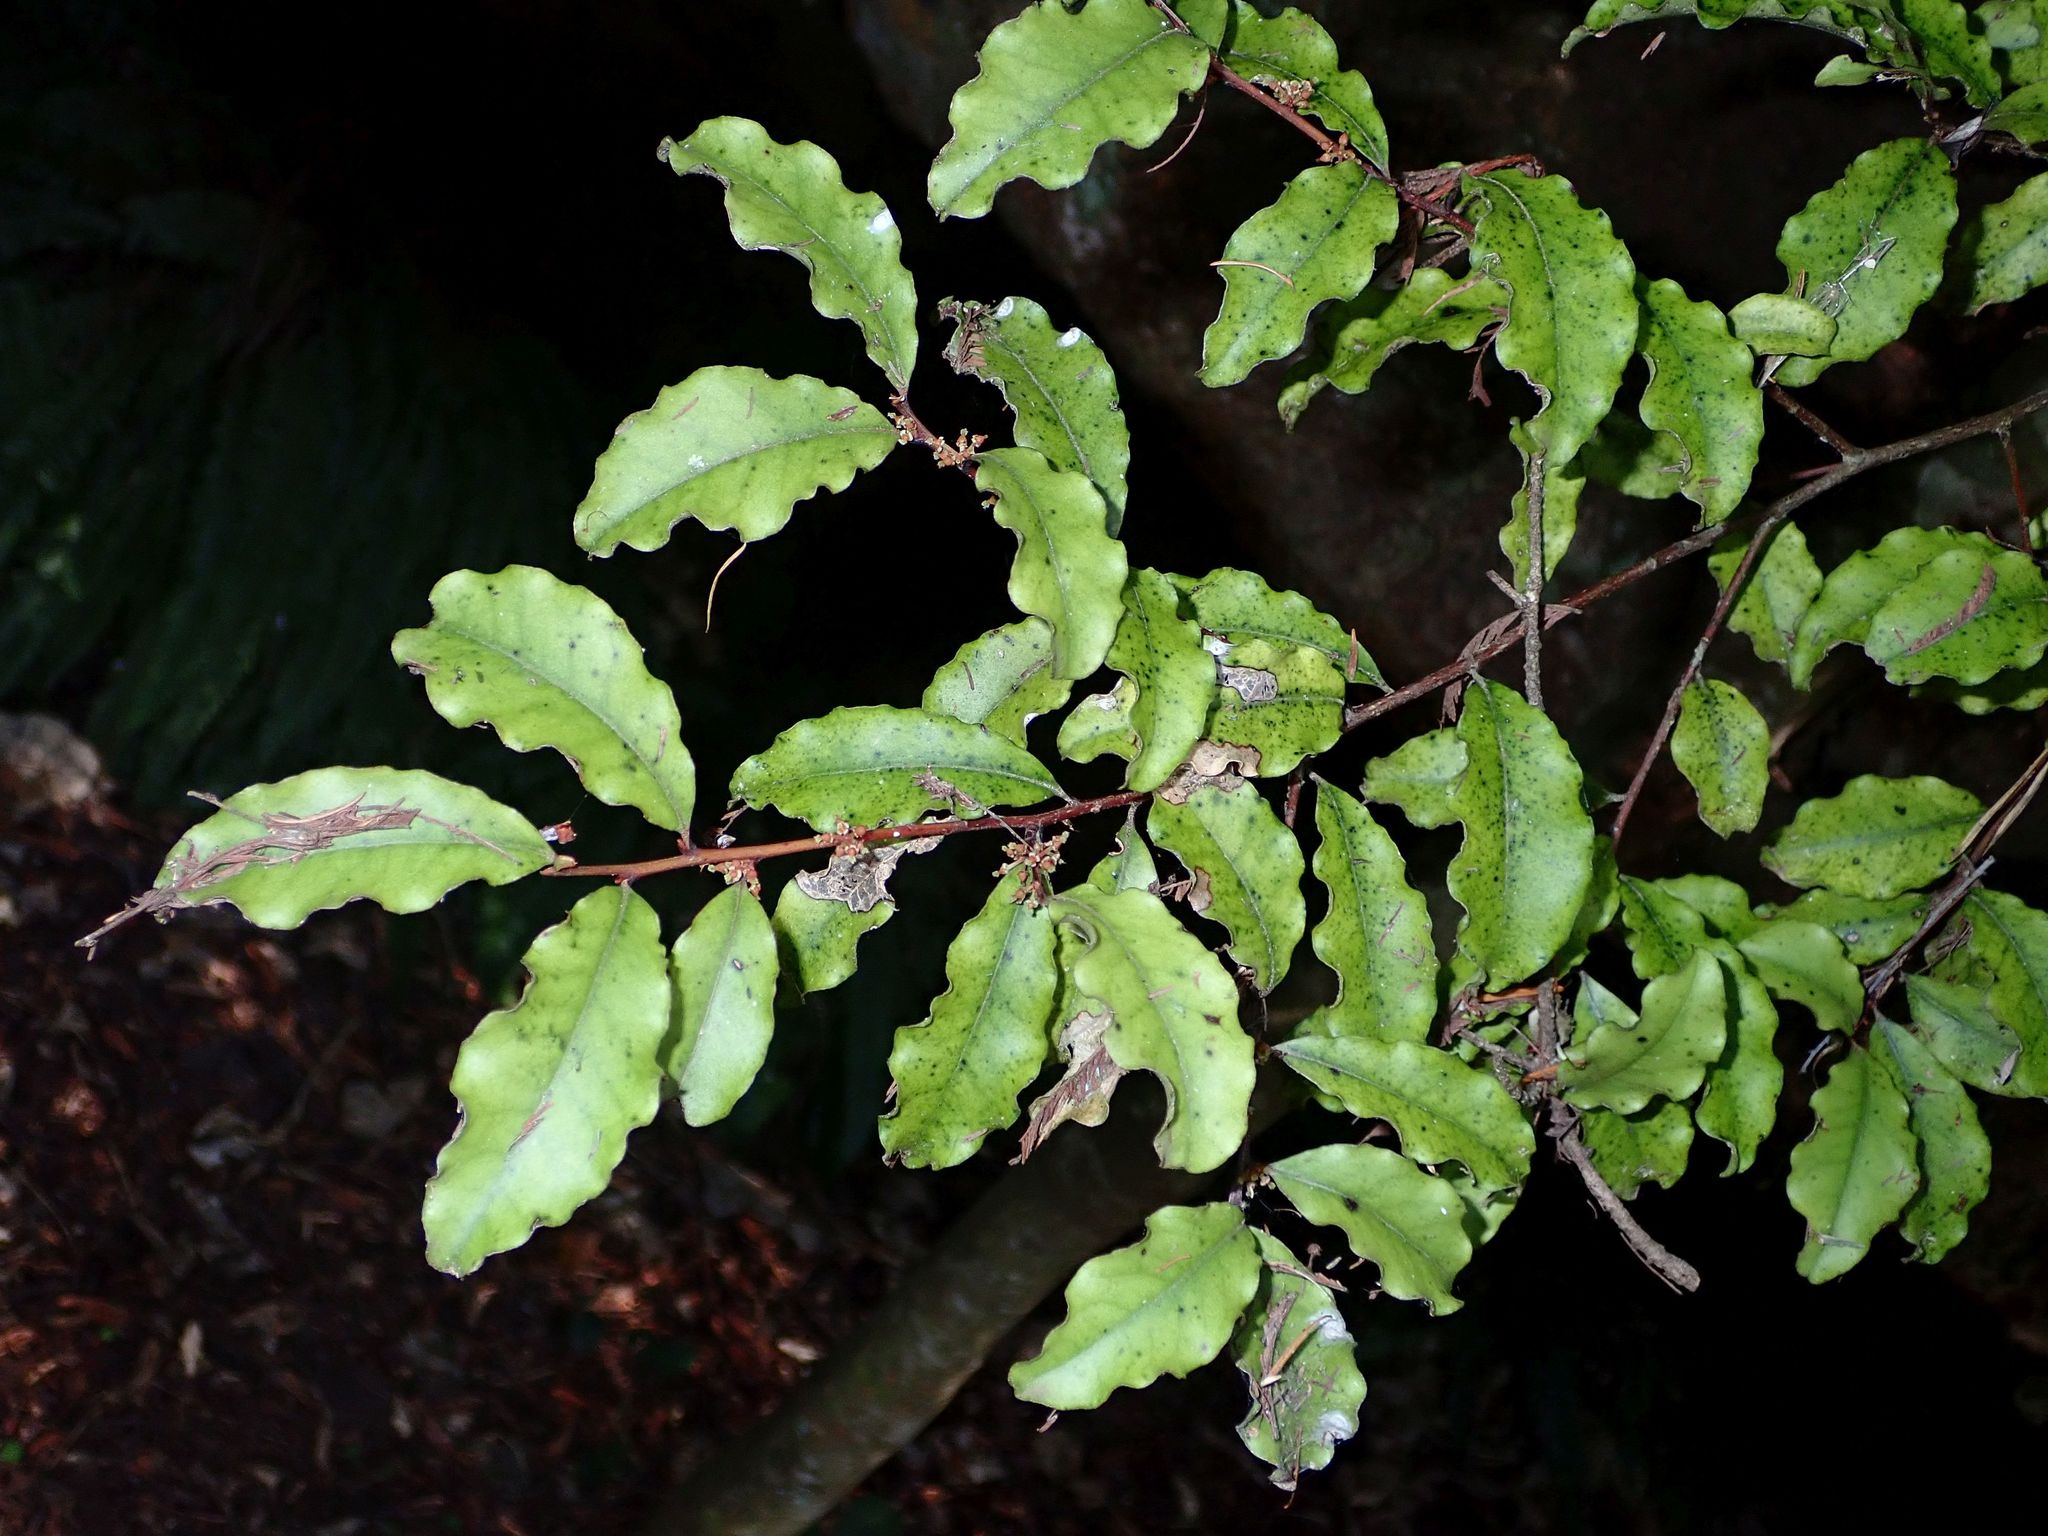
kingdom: Plantae
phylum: Tracheophyta
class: Magnoliopsida
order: Ericales
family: Primulaceae
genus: Myrsine
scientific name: Myrsine australis
